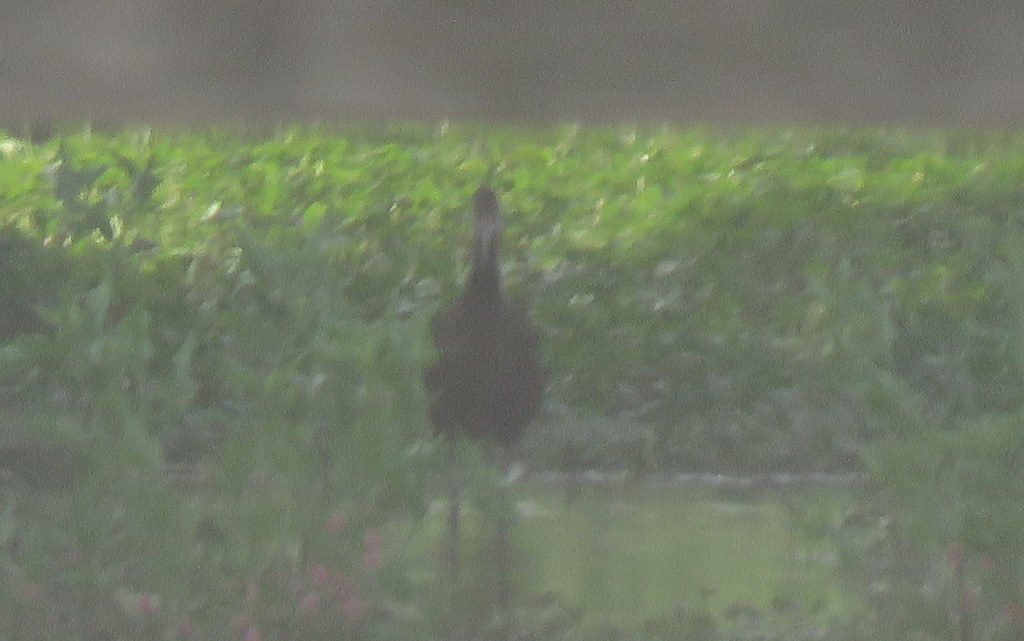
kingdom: Animalia
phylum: Chordata
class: Aves
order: Gruiformes
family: Aramidae
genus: Aramus
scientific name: Aramus guarauna
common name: Limpkin
